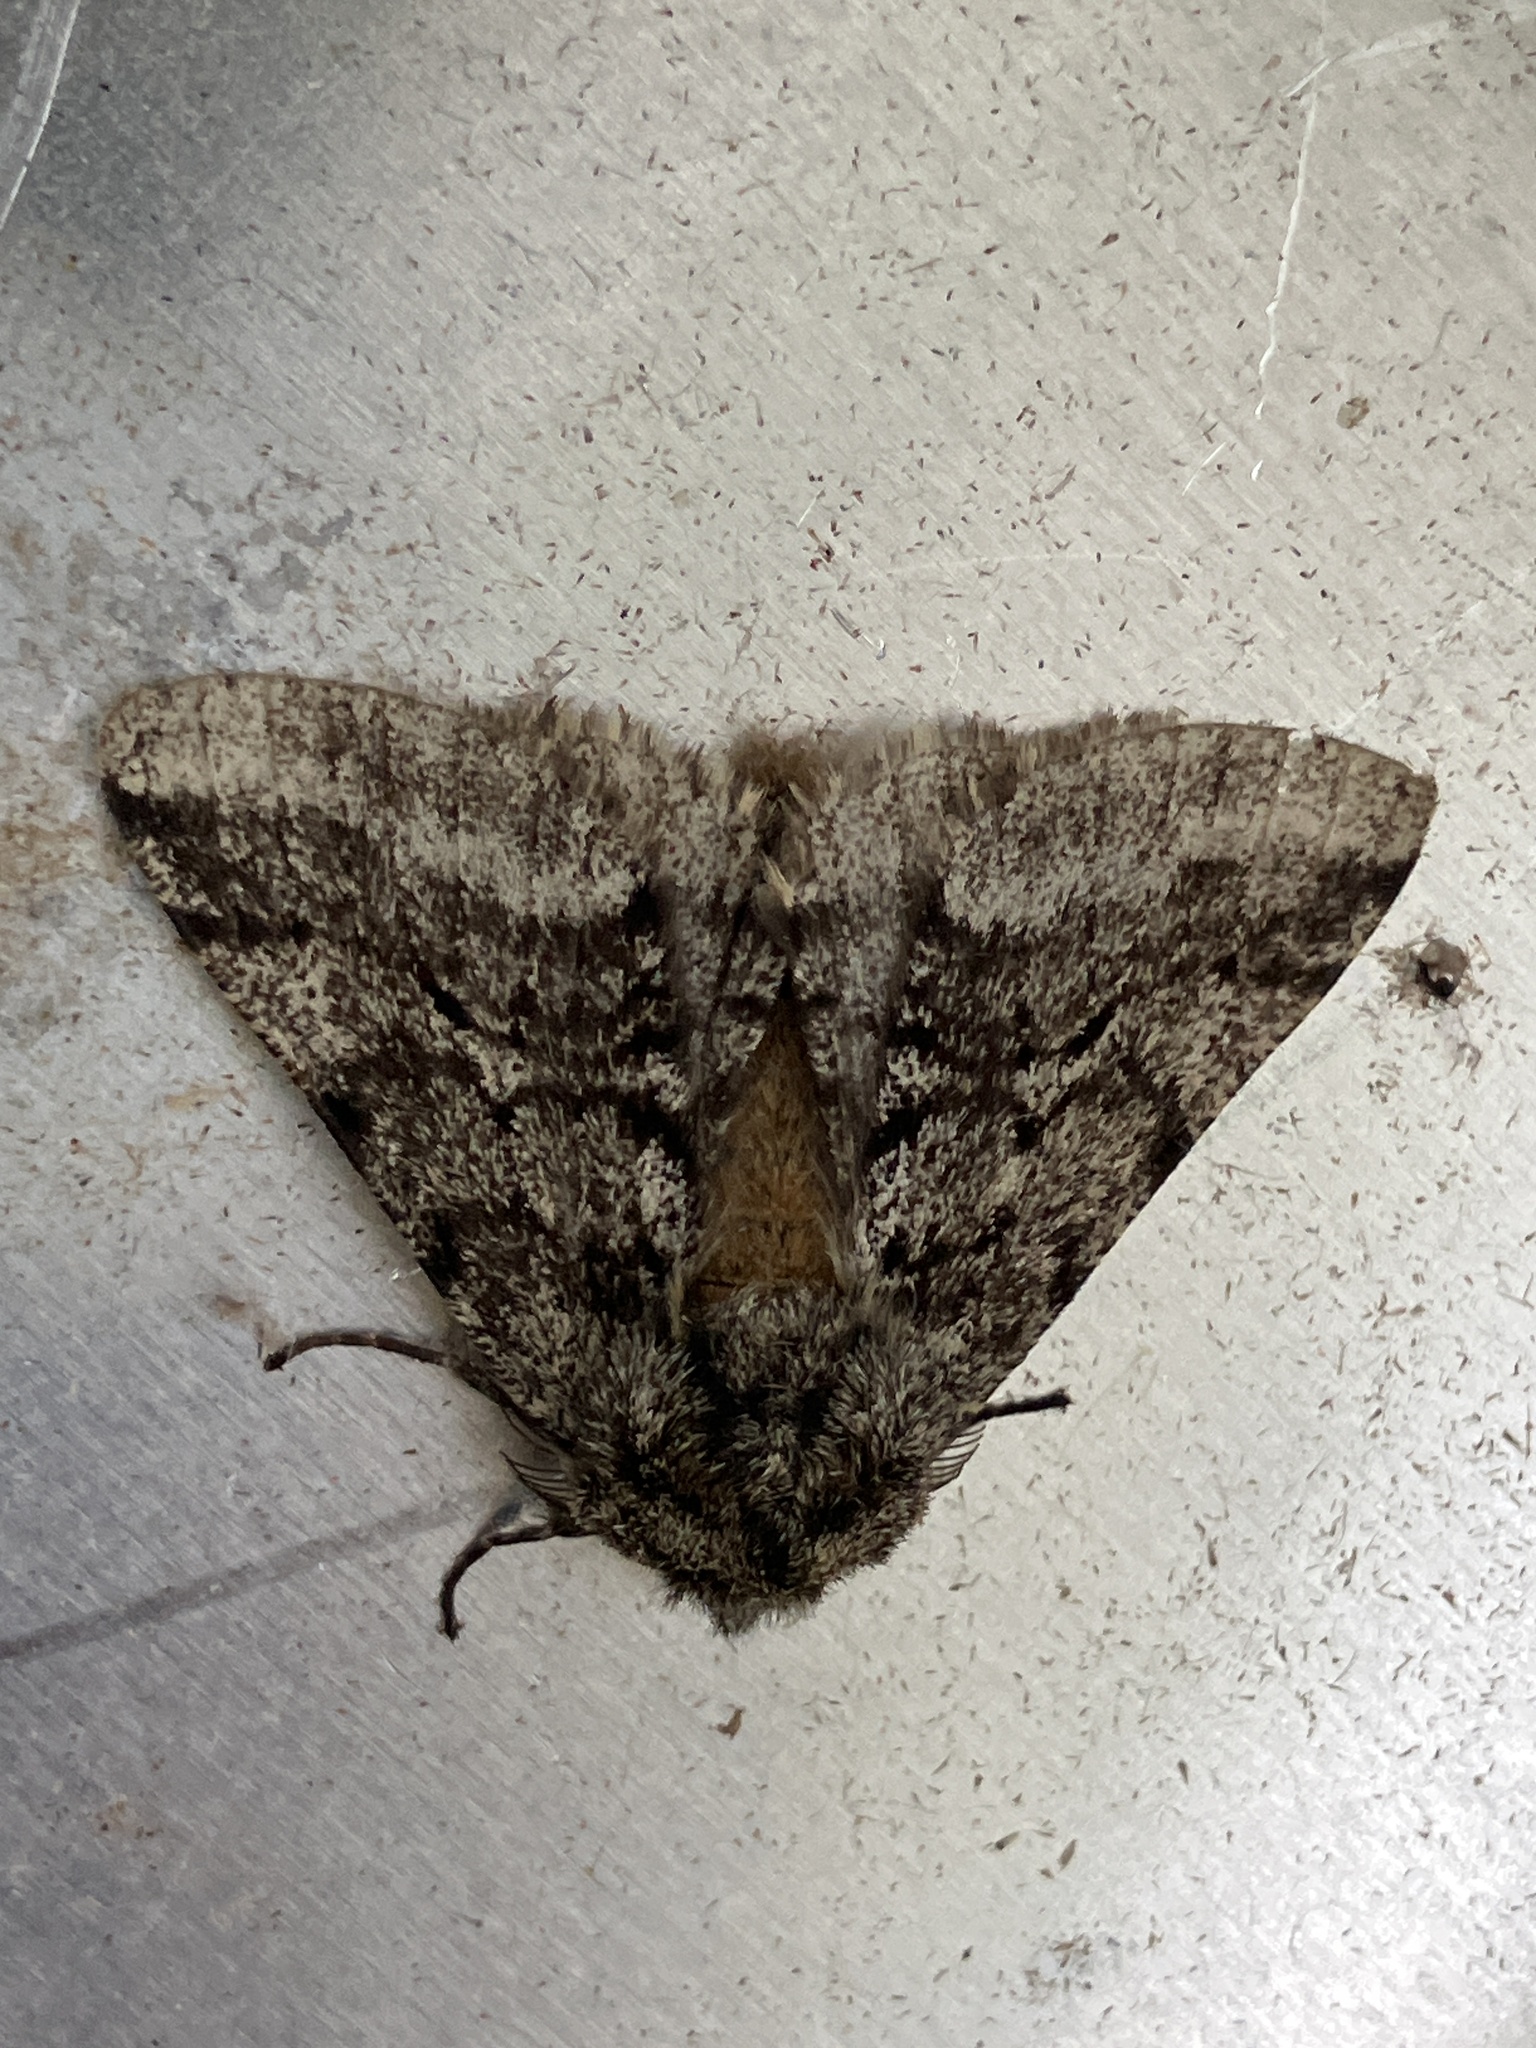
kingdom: Animalia
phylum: Arthropoda
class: Insecta
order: Lepidoptera
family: Geometridae
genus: Lycia
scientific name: Lycia hirtaria
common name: Brindled beauty
